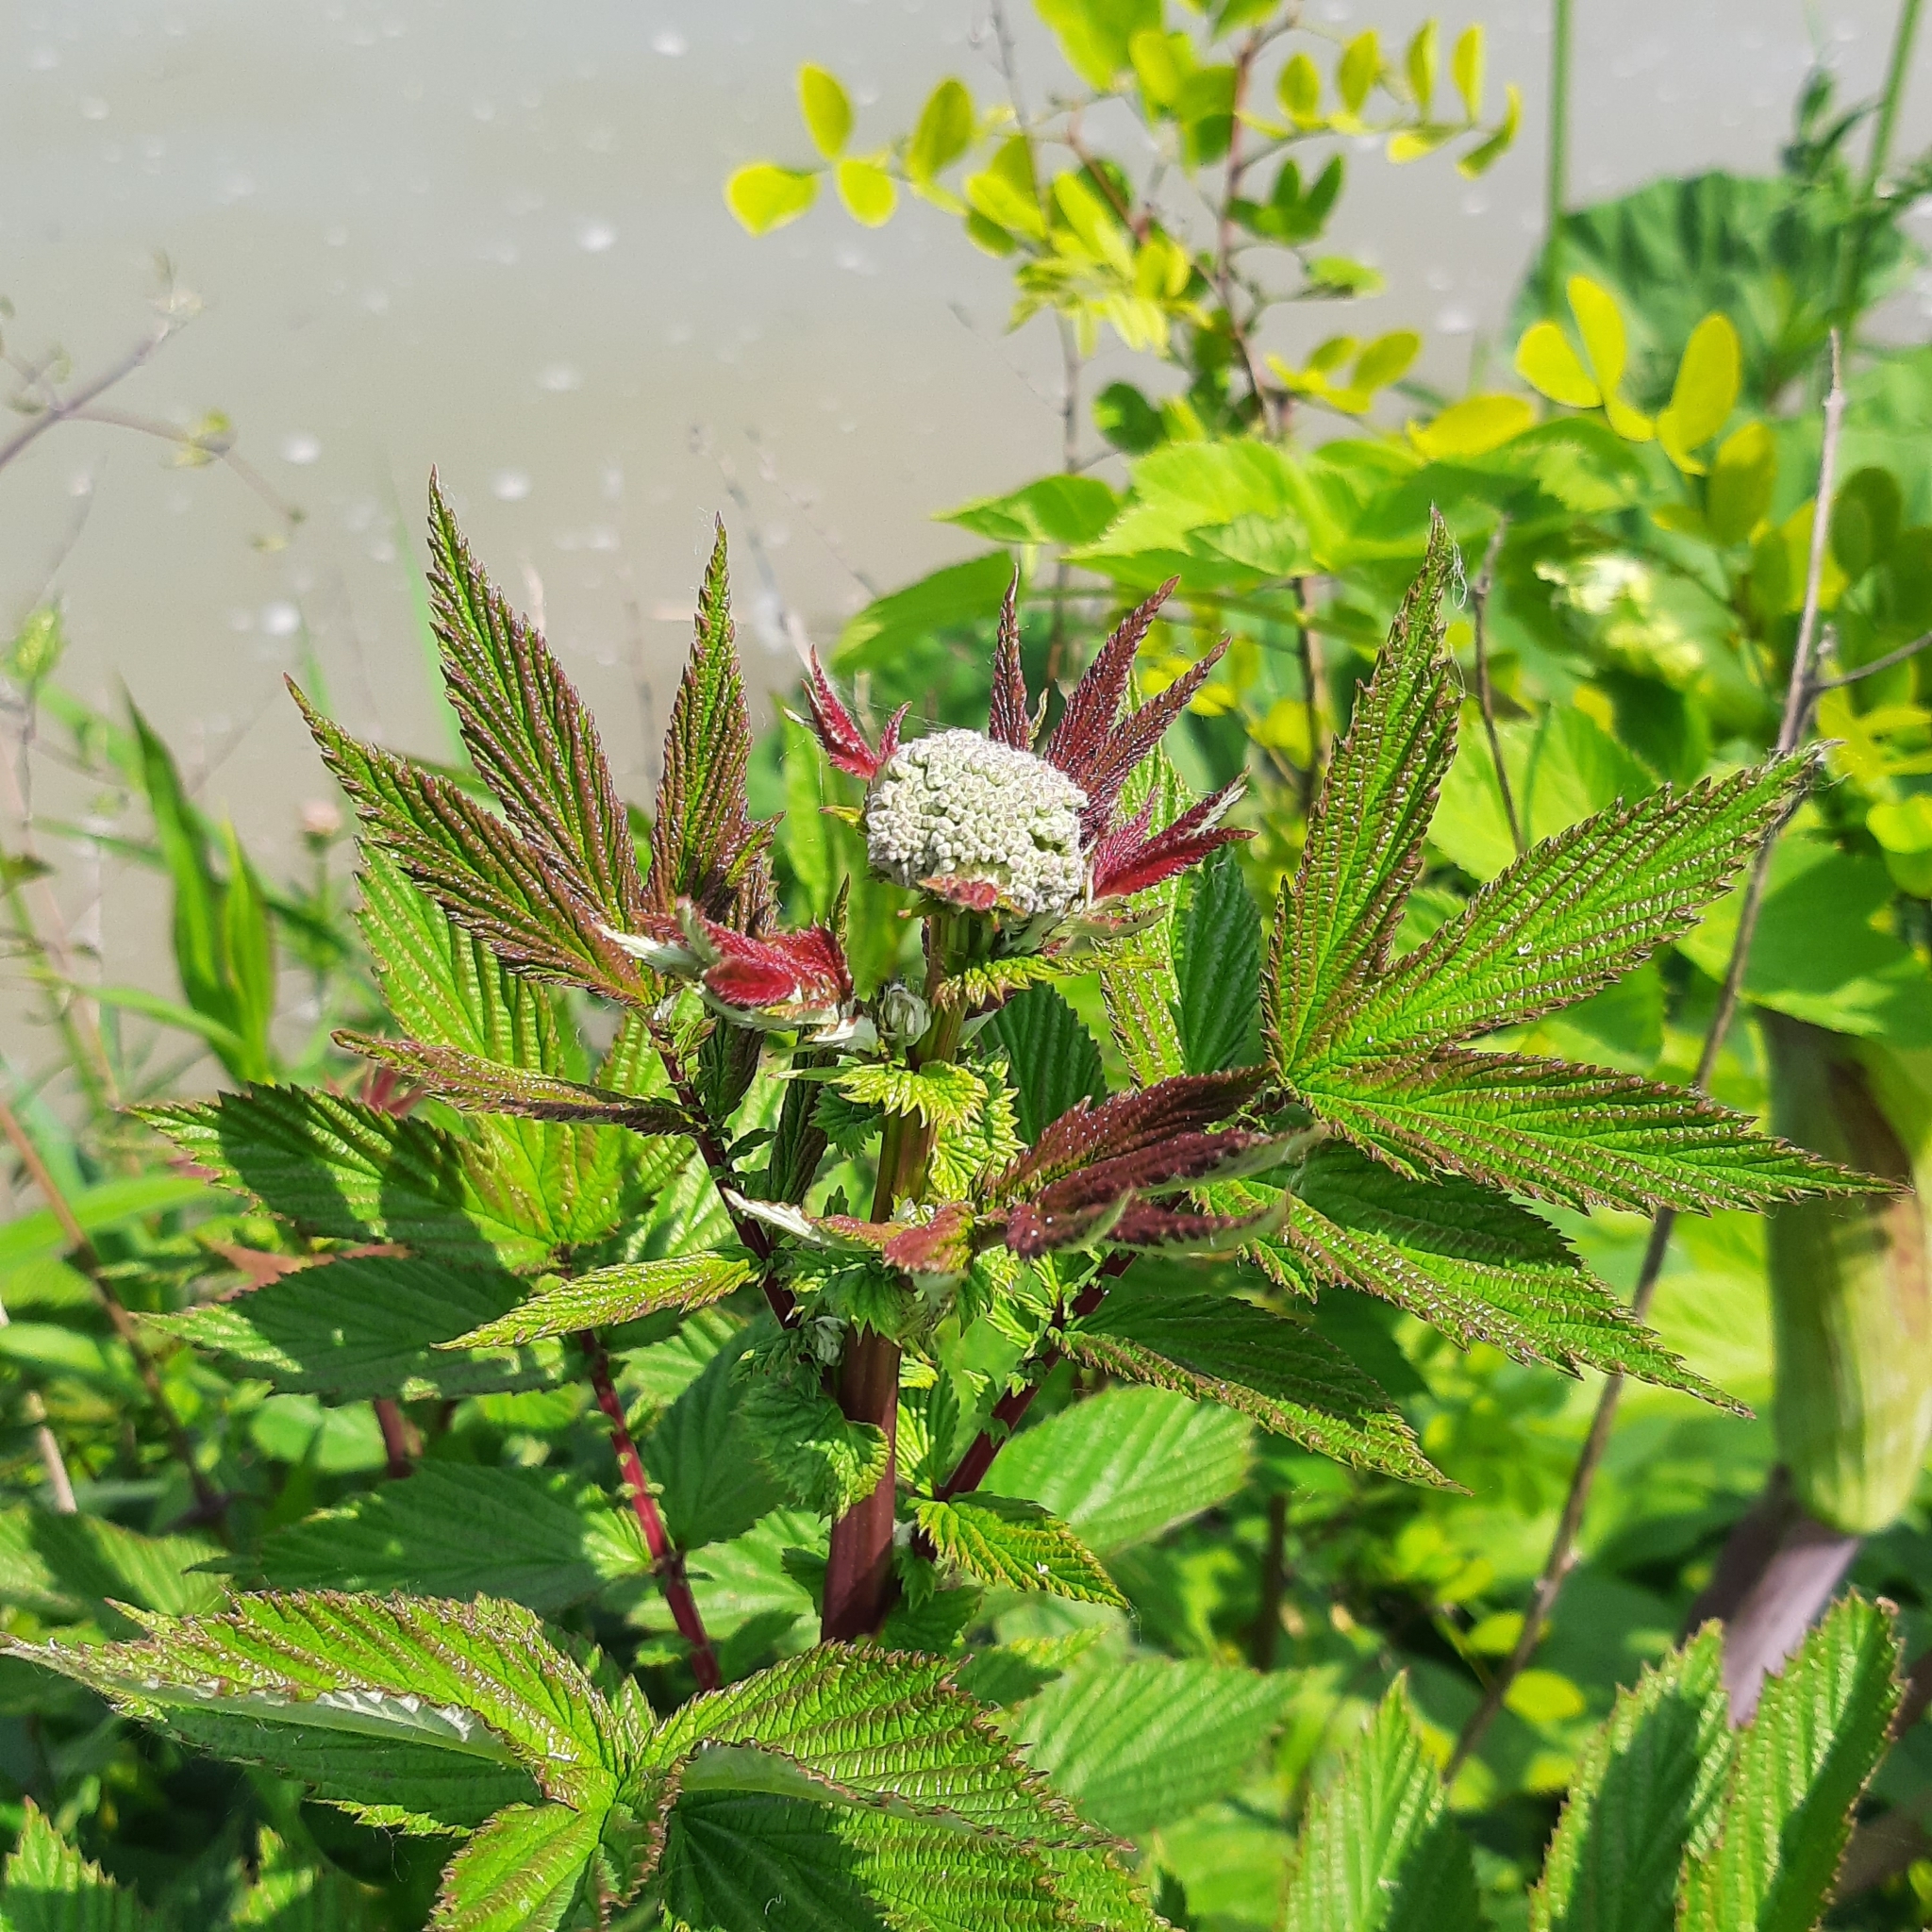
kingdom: Plantae
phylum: Tracheophyta
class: Magnoliopsida
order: Rosales
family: Rosaceae
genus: Filipendula
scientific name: Filipendula ulmaria
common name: Meadowsweet
